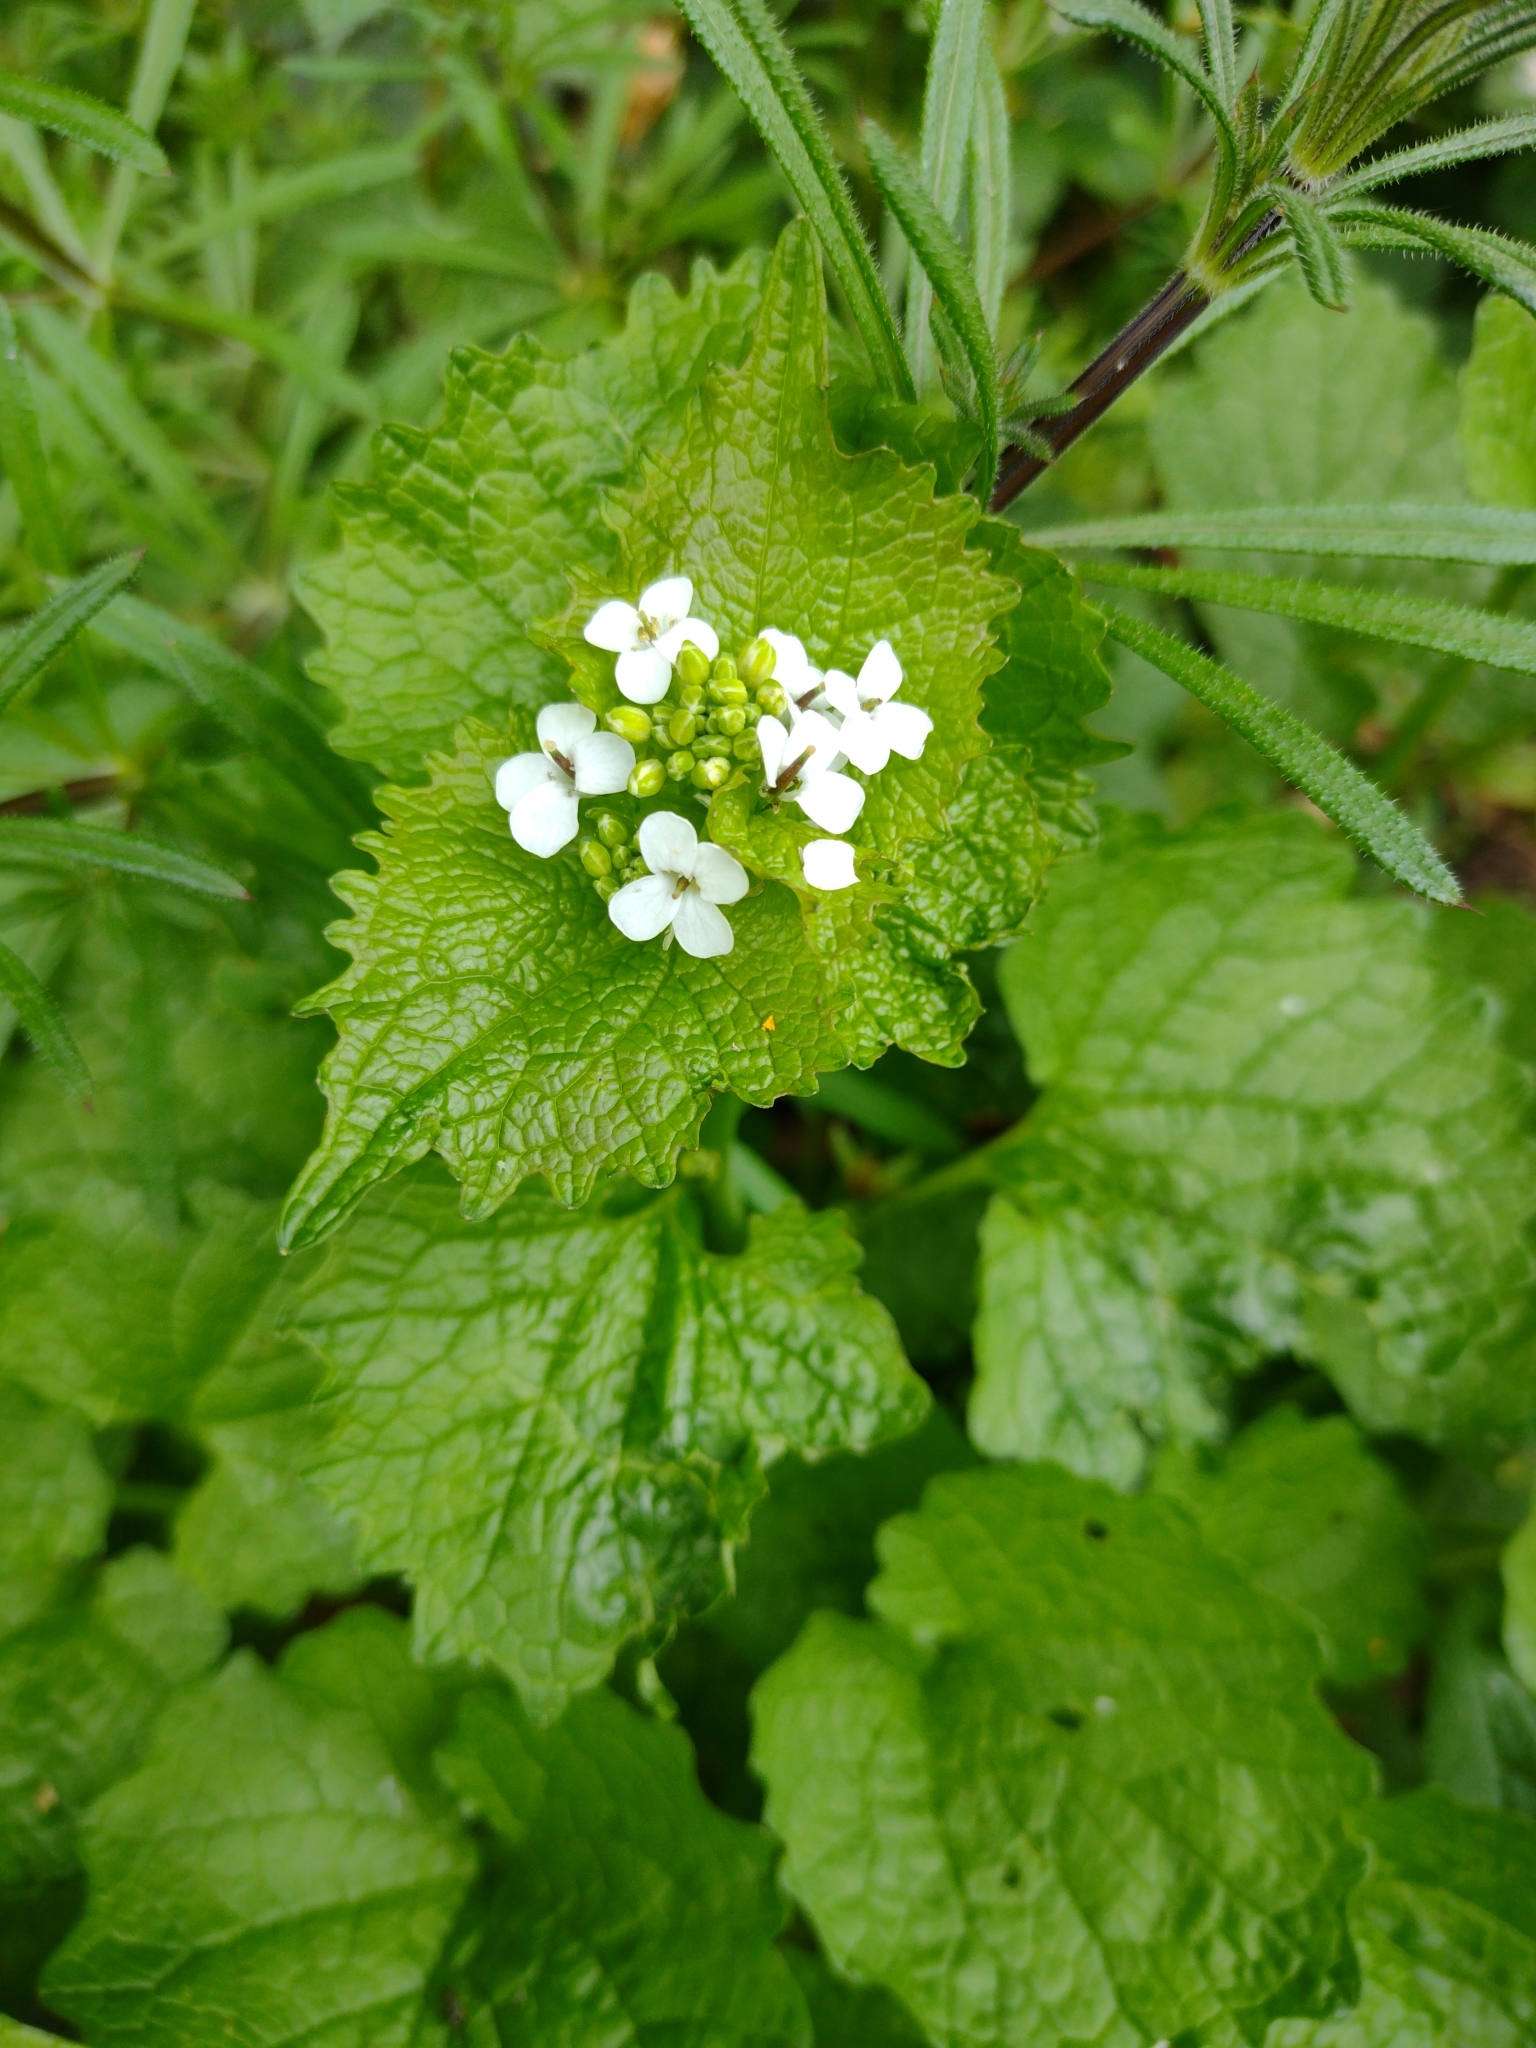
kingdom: Plantae
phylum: Tracheophyta
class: Magnoliopsida
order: Brassicales
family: Brassicaceae
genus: Alliaria
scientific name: Alliaria petiolata
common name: Garlic mustard
